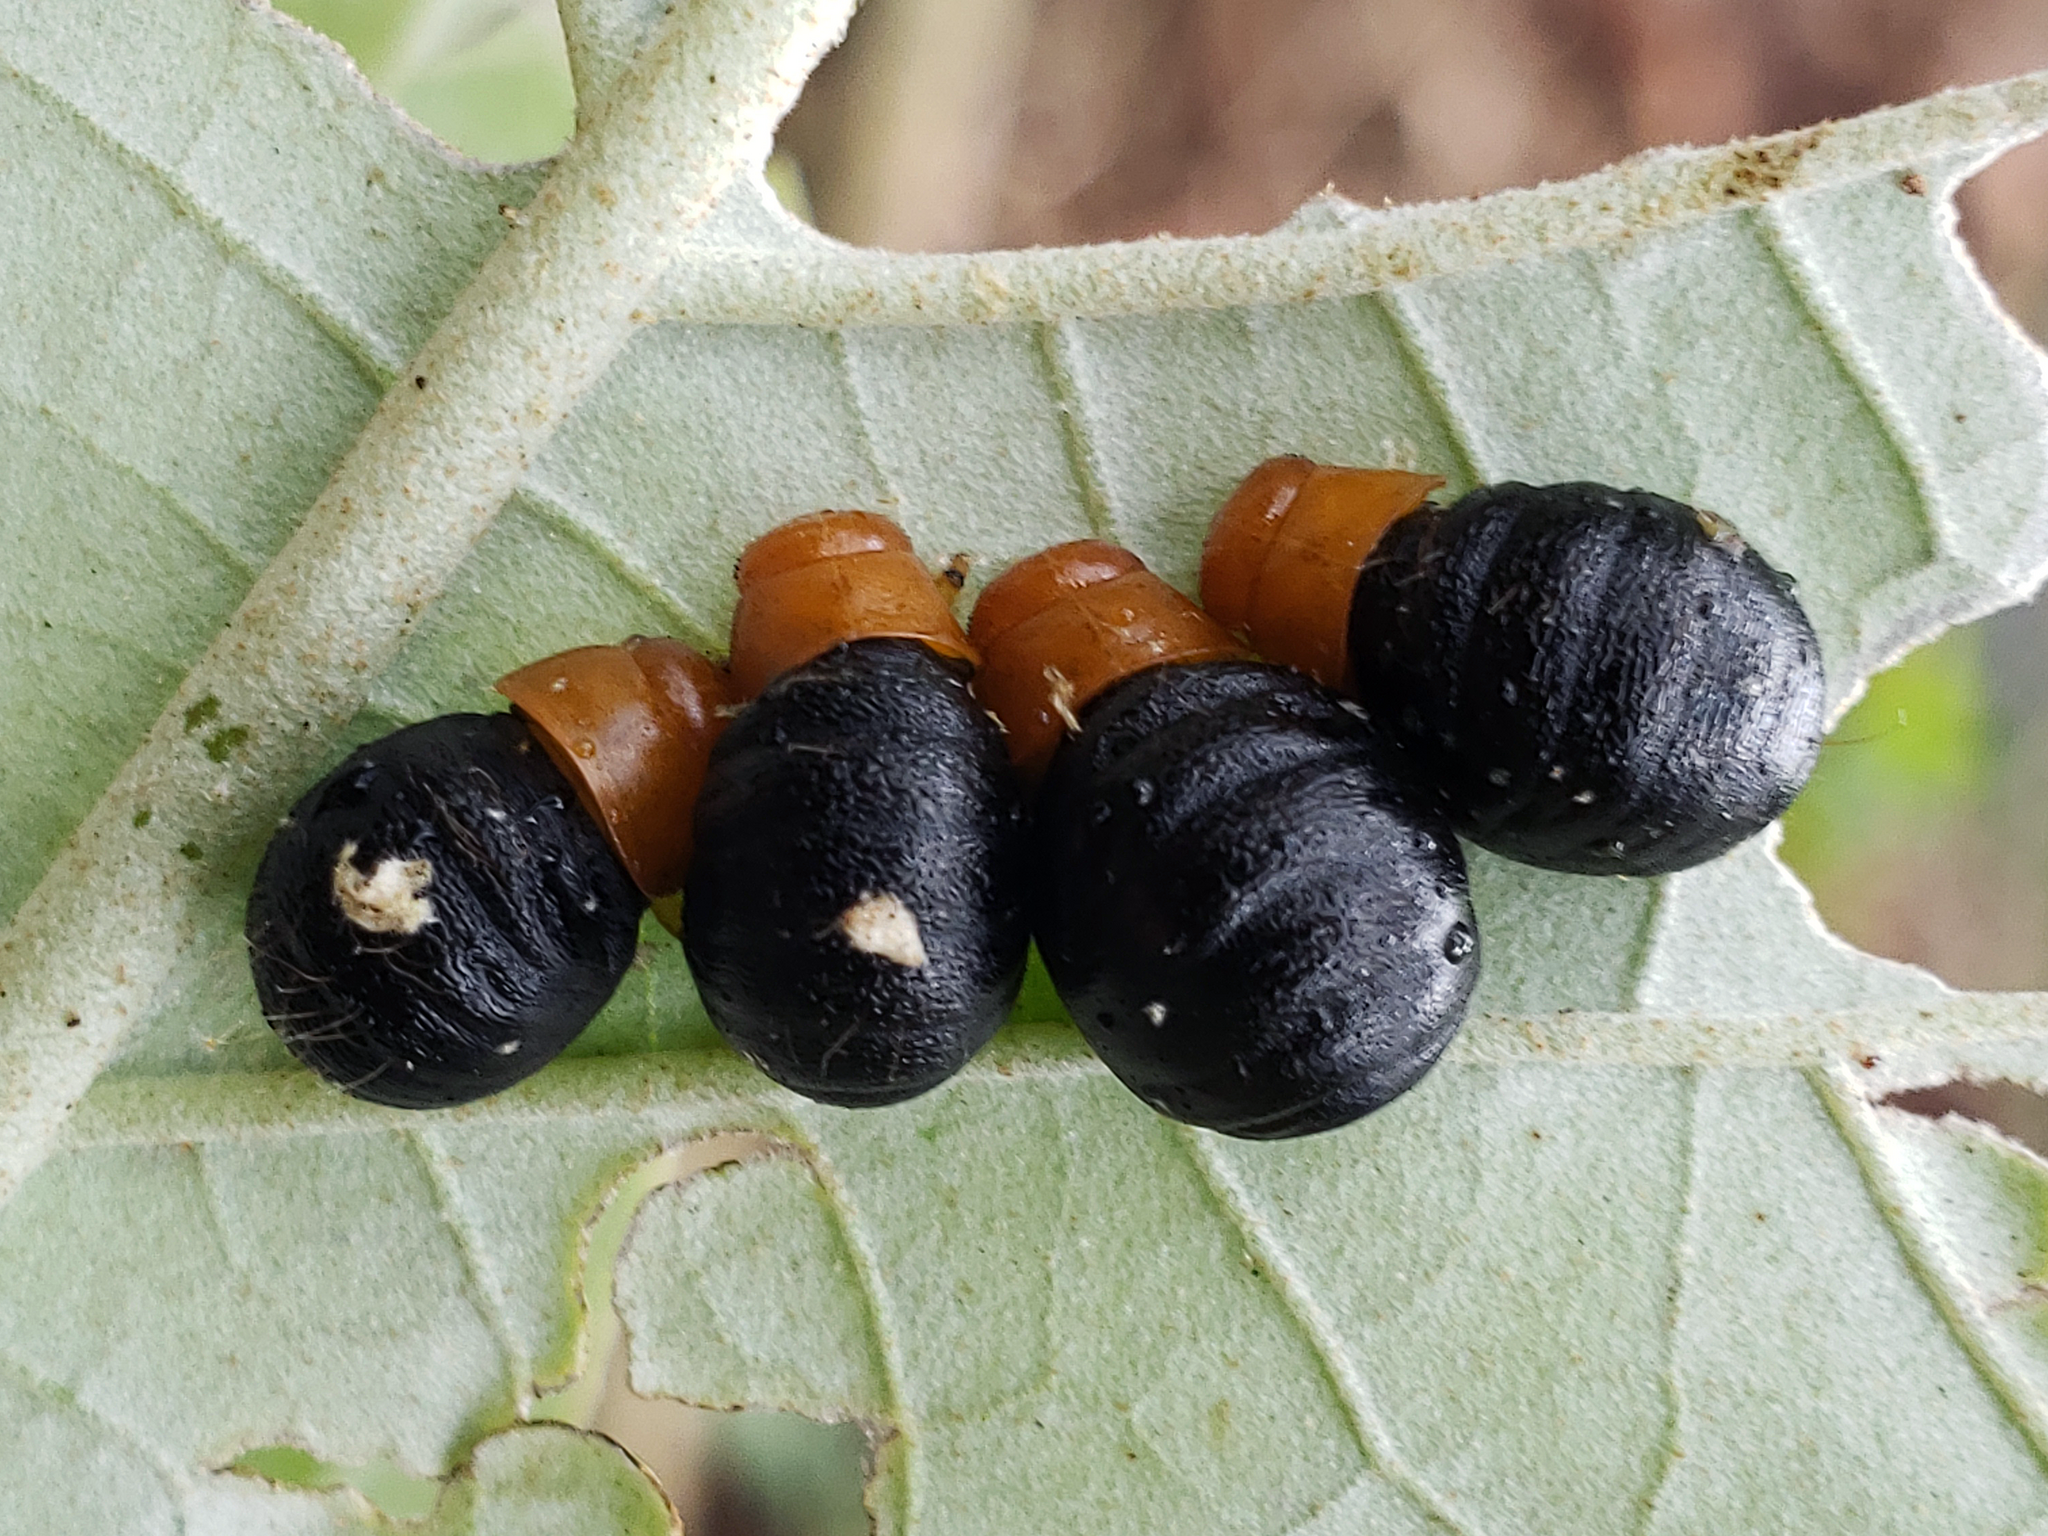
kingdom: Animalia
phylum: Arthropoda
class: Insecta
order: Coleoptera
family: Chrysomelidae
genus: Platyphora
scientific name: Platyphora
